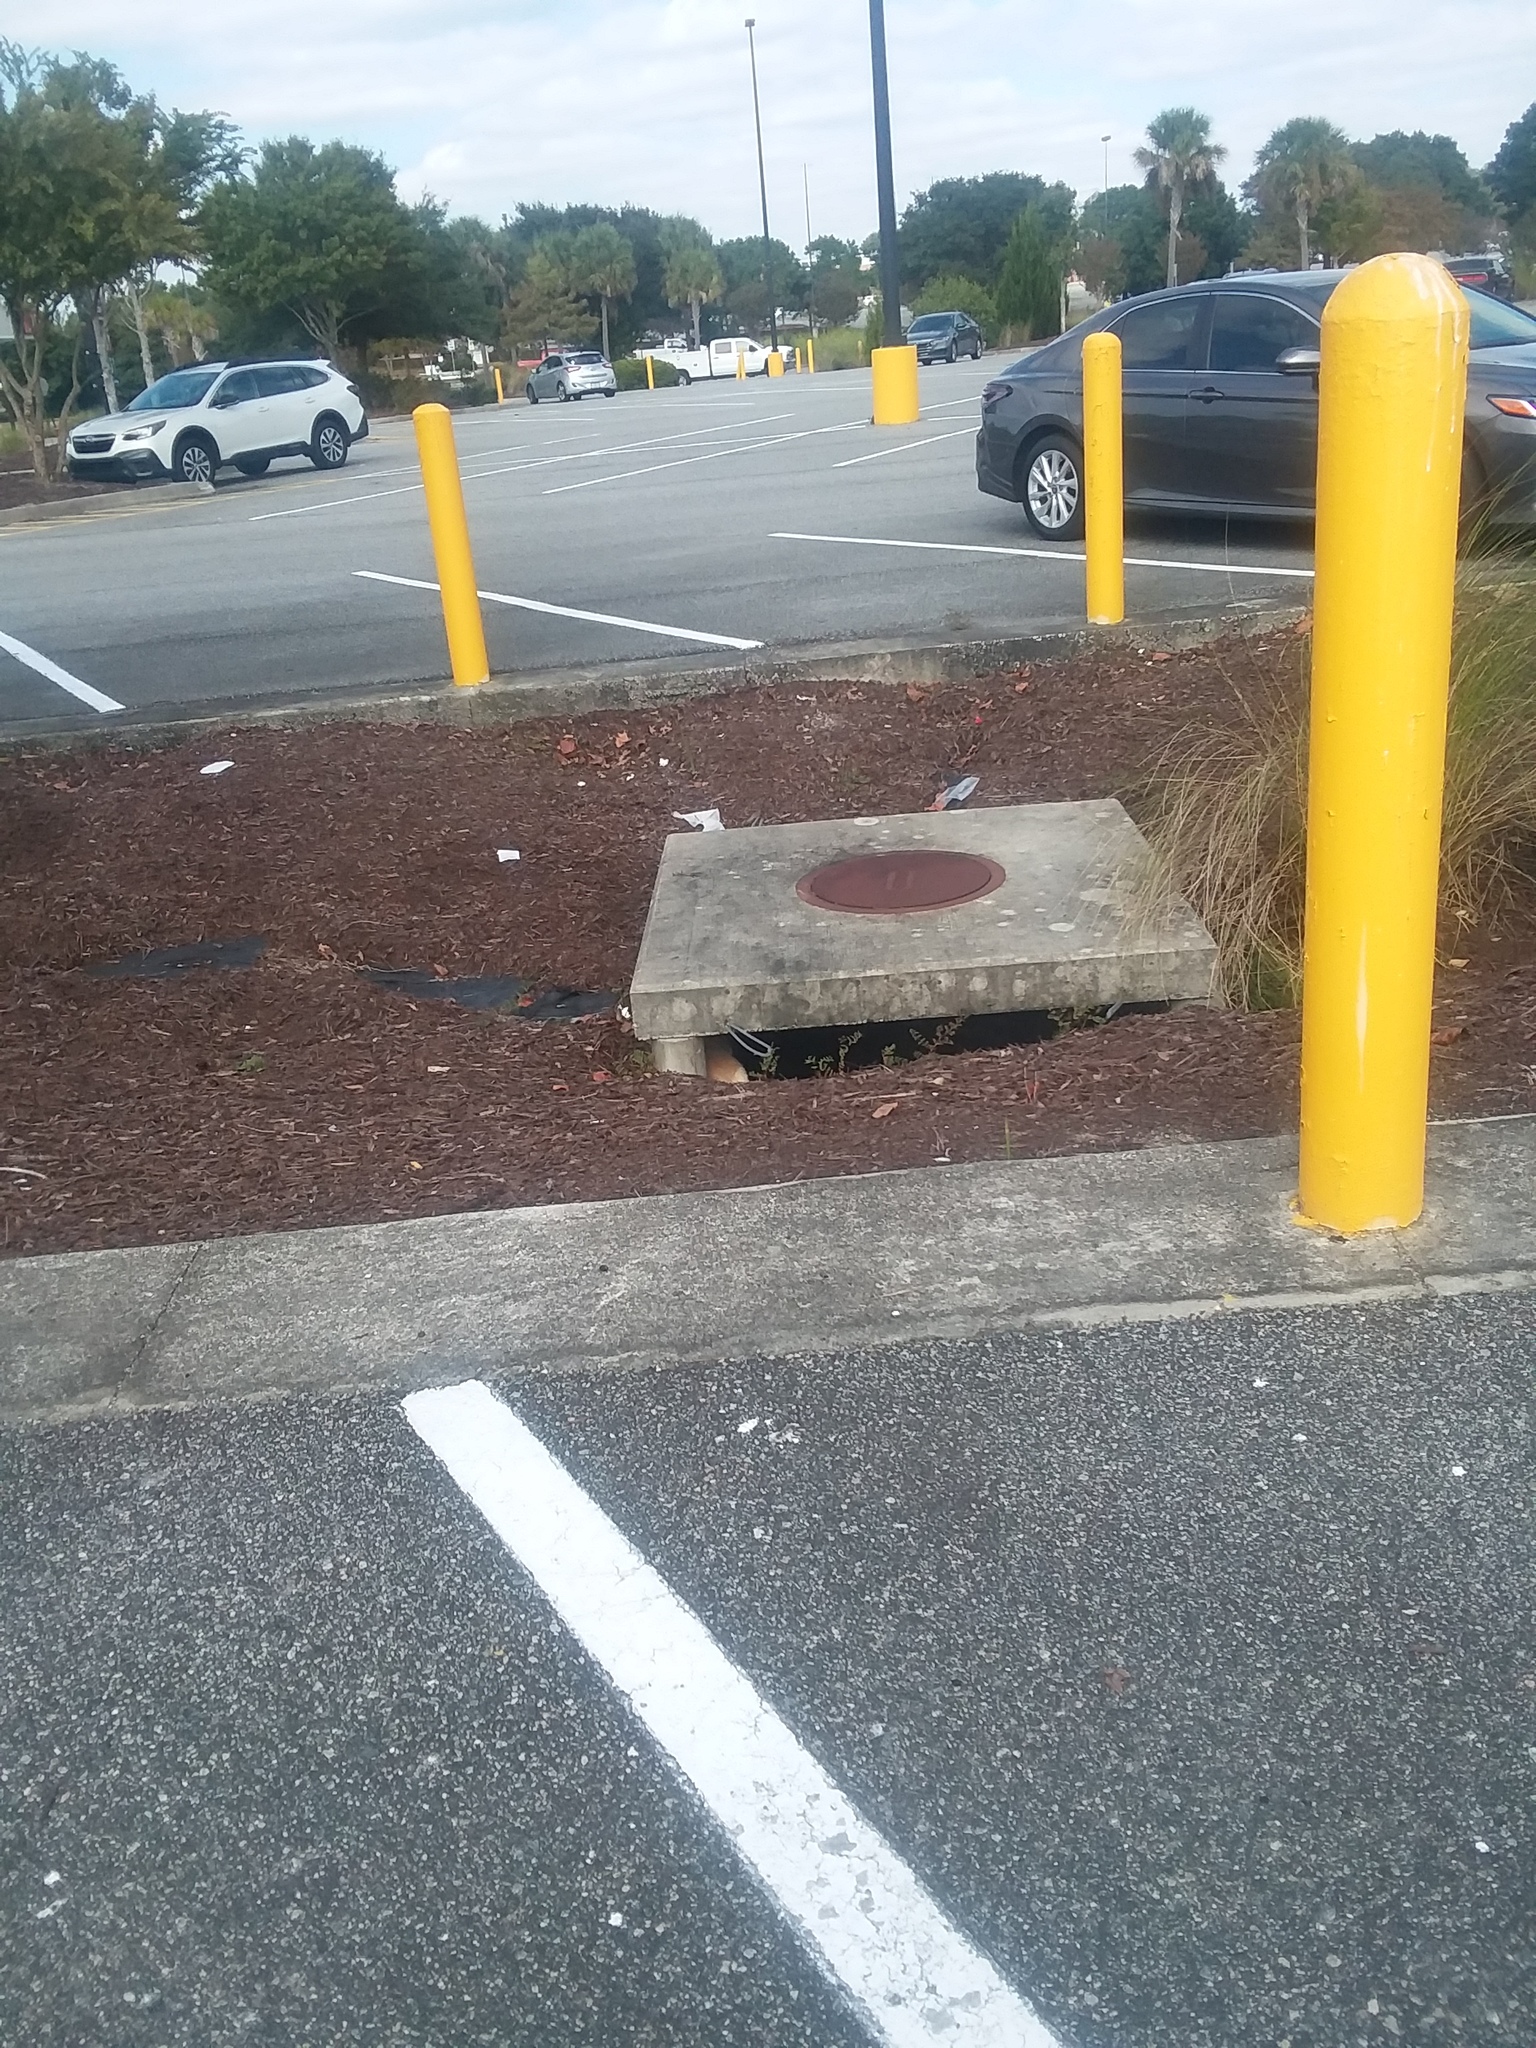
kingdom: Animalia
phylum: Chordata
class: Mammalia
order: Carnivora
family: Felidae
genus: Felis
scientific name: Felis catus
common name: Domestic cat
